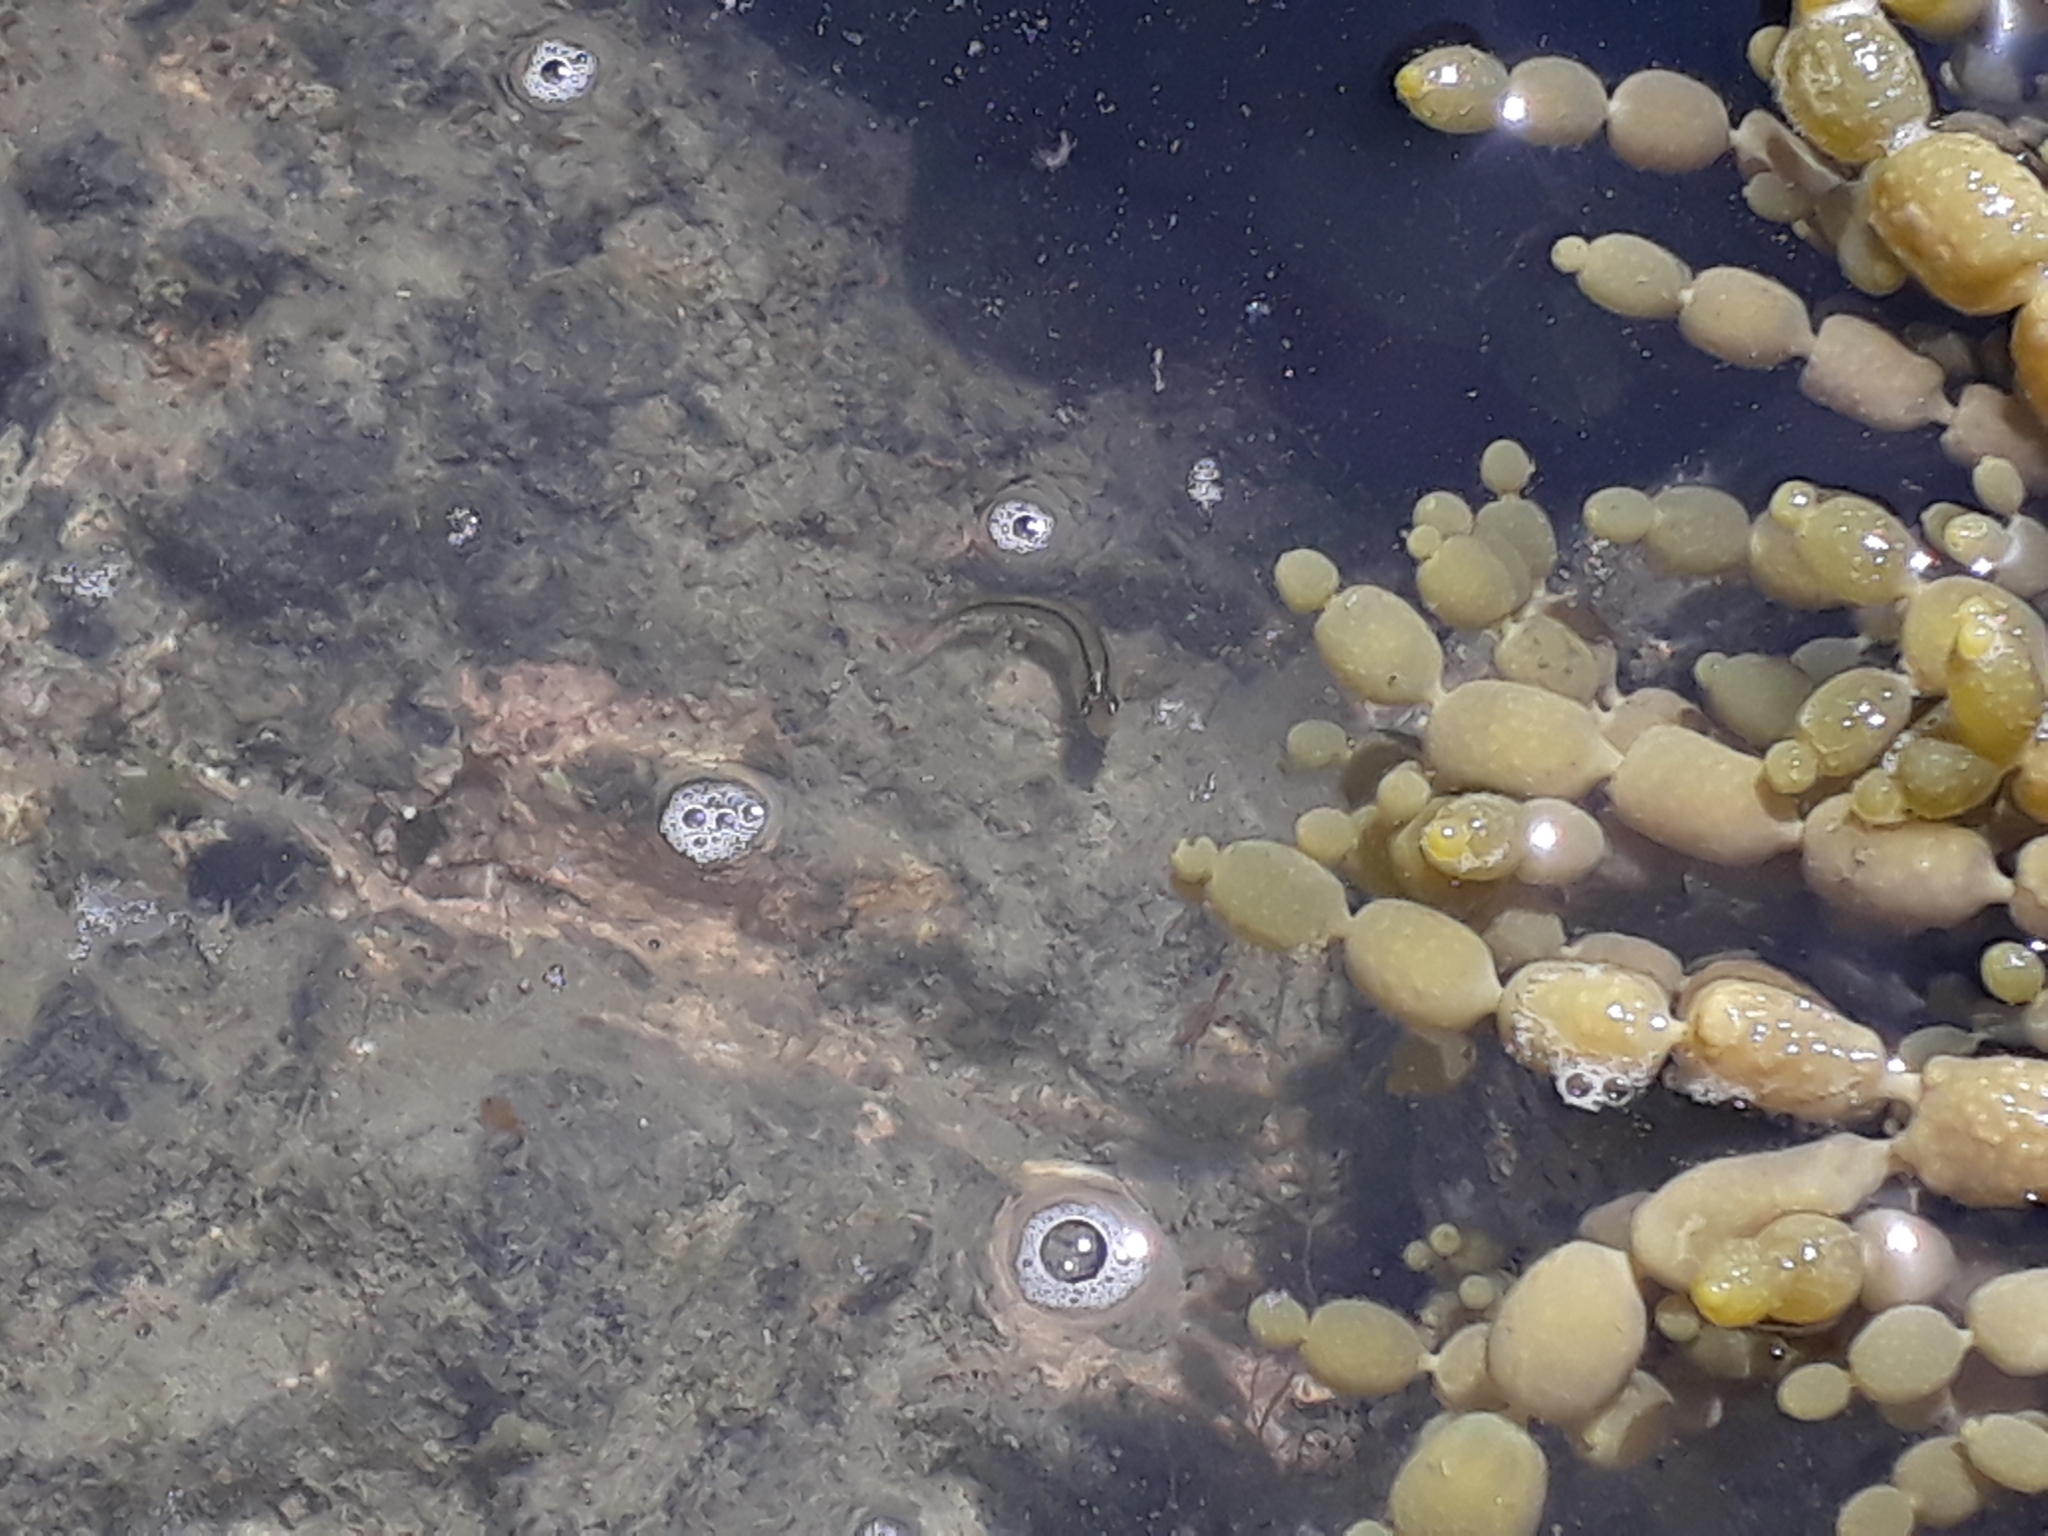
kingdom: Animalia
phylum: Chordata
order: Perciformes
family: Tripterygiidae
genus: Forsterygion
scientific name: Forsterygion lapillum
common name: Common triplefin
